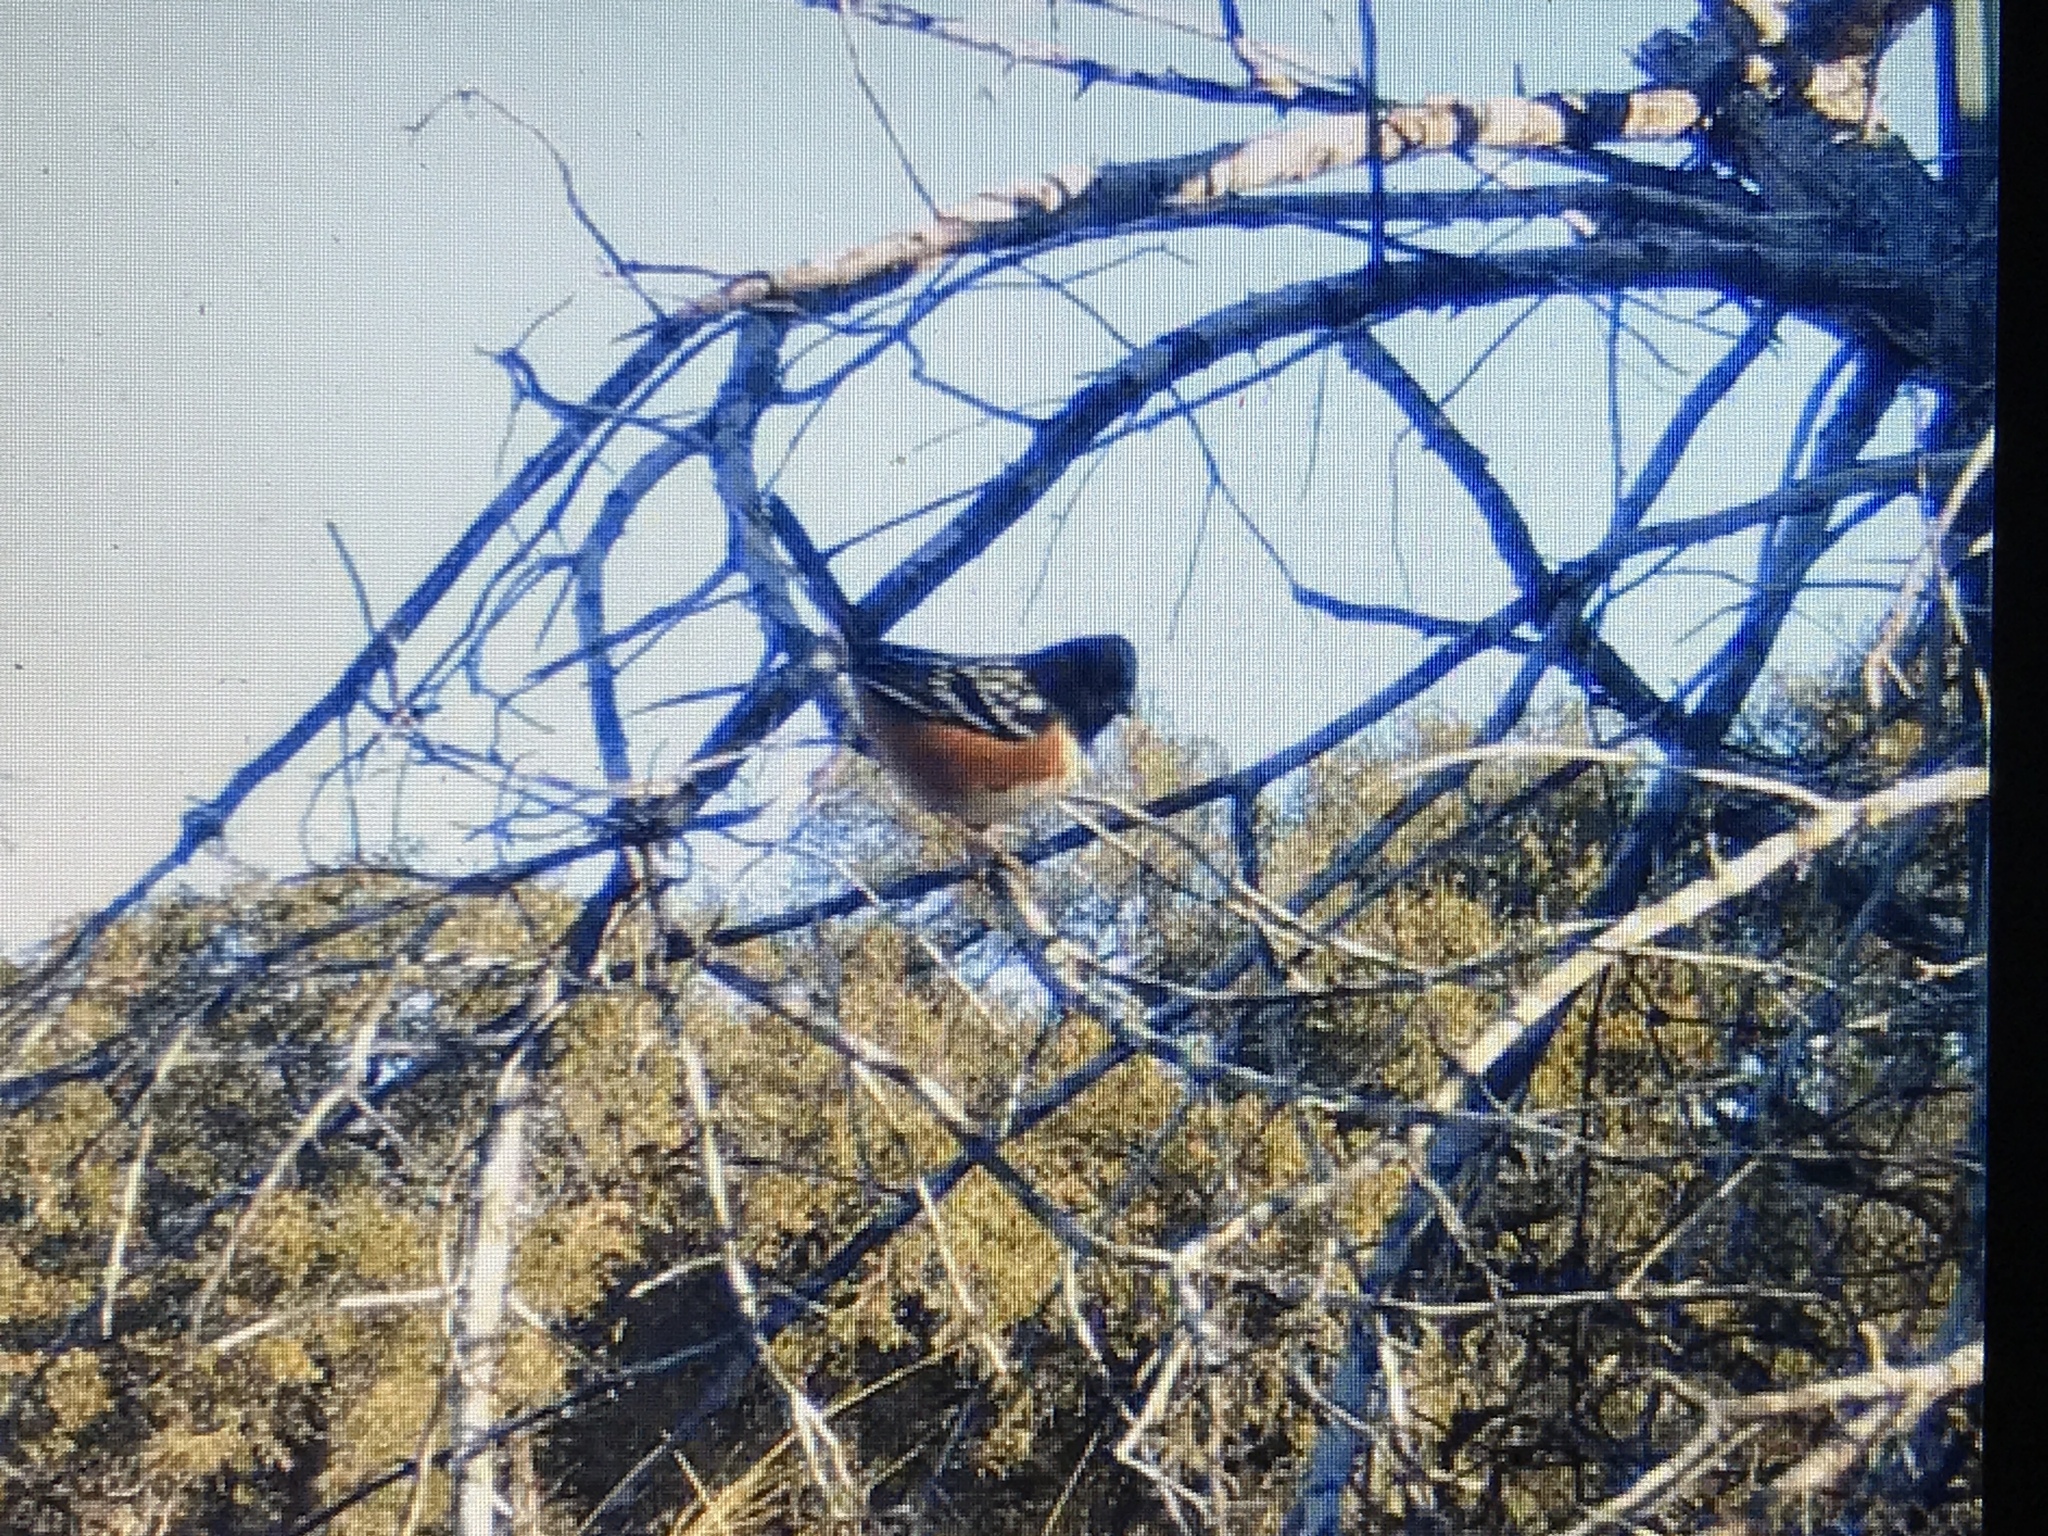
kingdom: Animalia
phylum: Chordata
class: Aves
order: Passeriformes
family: Passerellidae
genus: Pipilo
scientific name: Pipilo maculatus
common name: Spotted towhee
